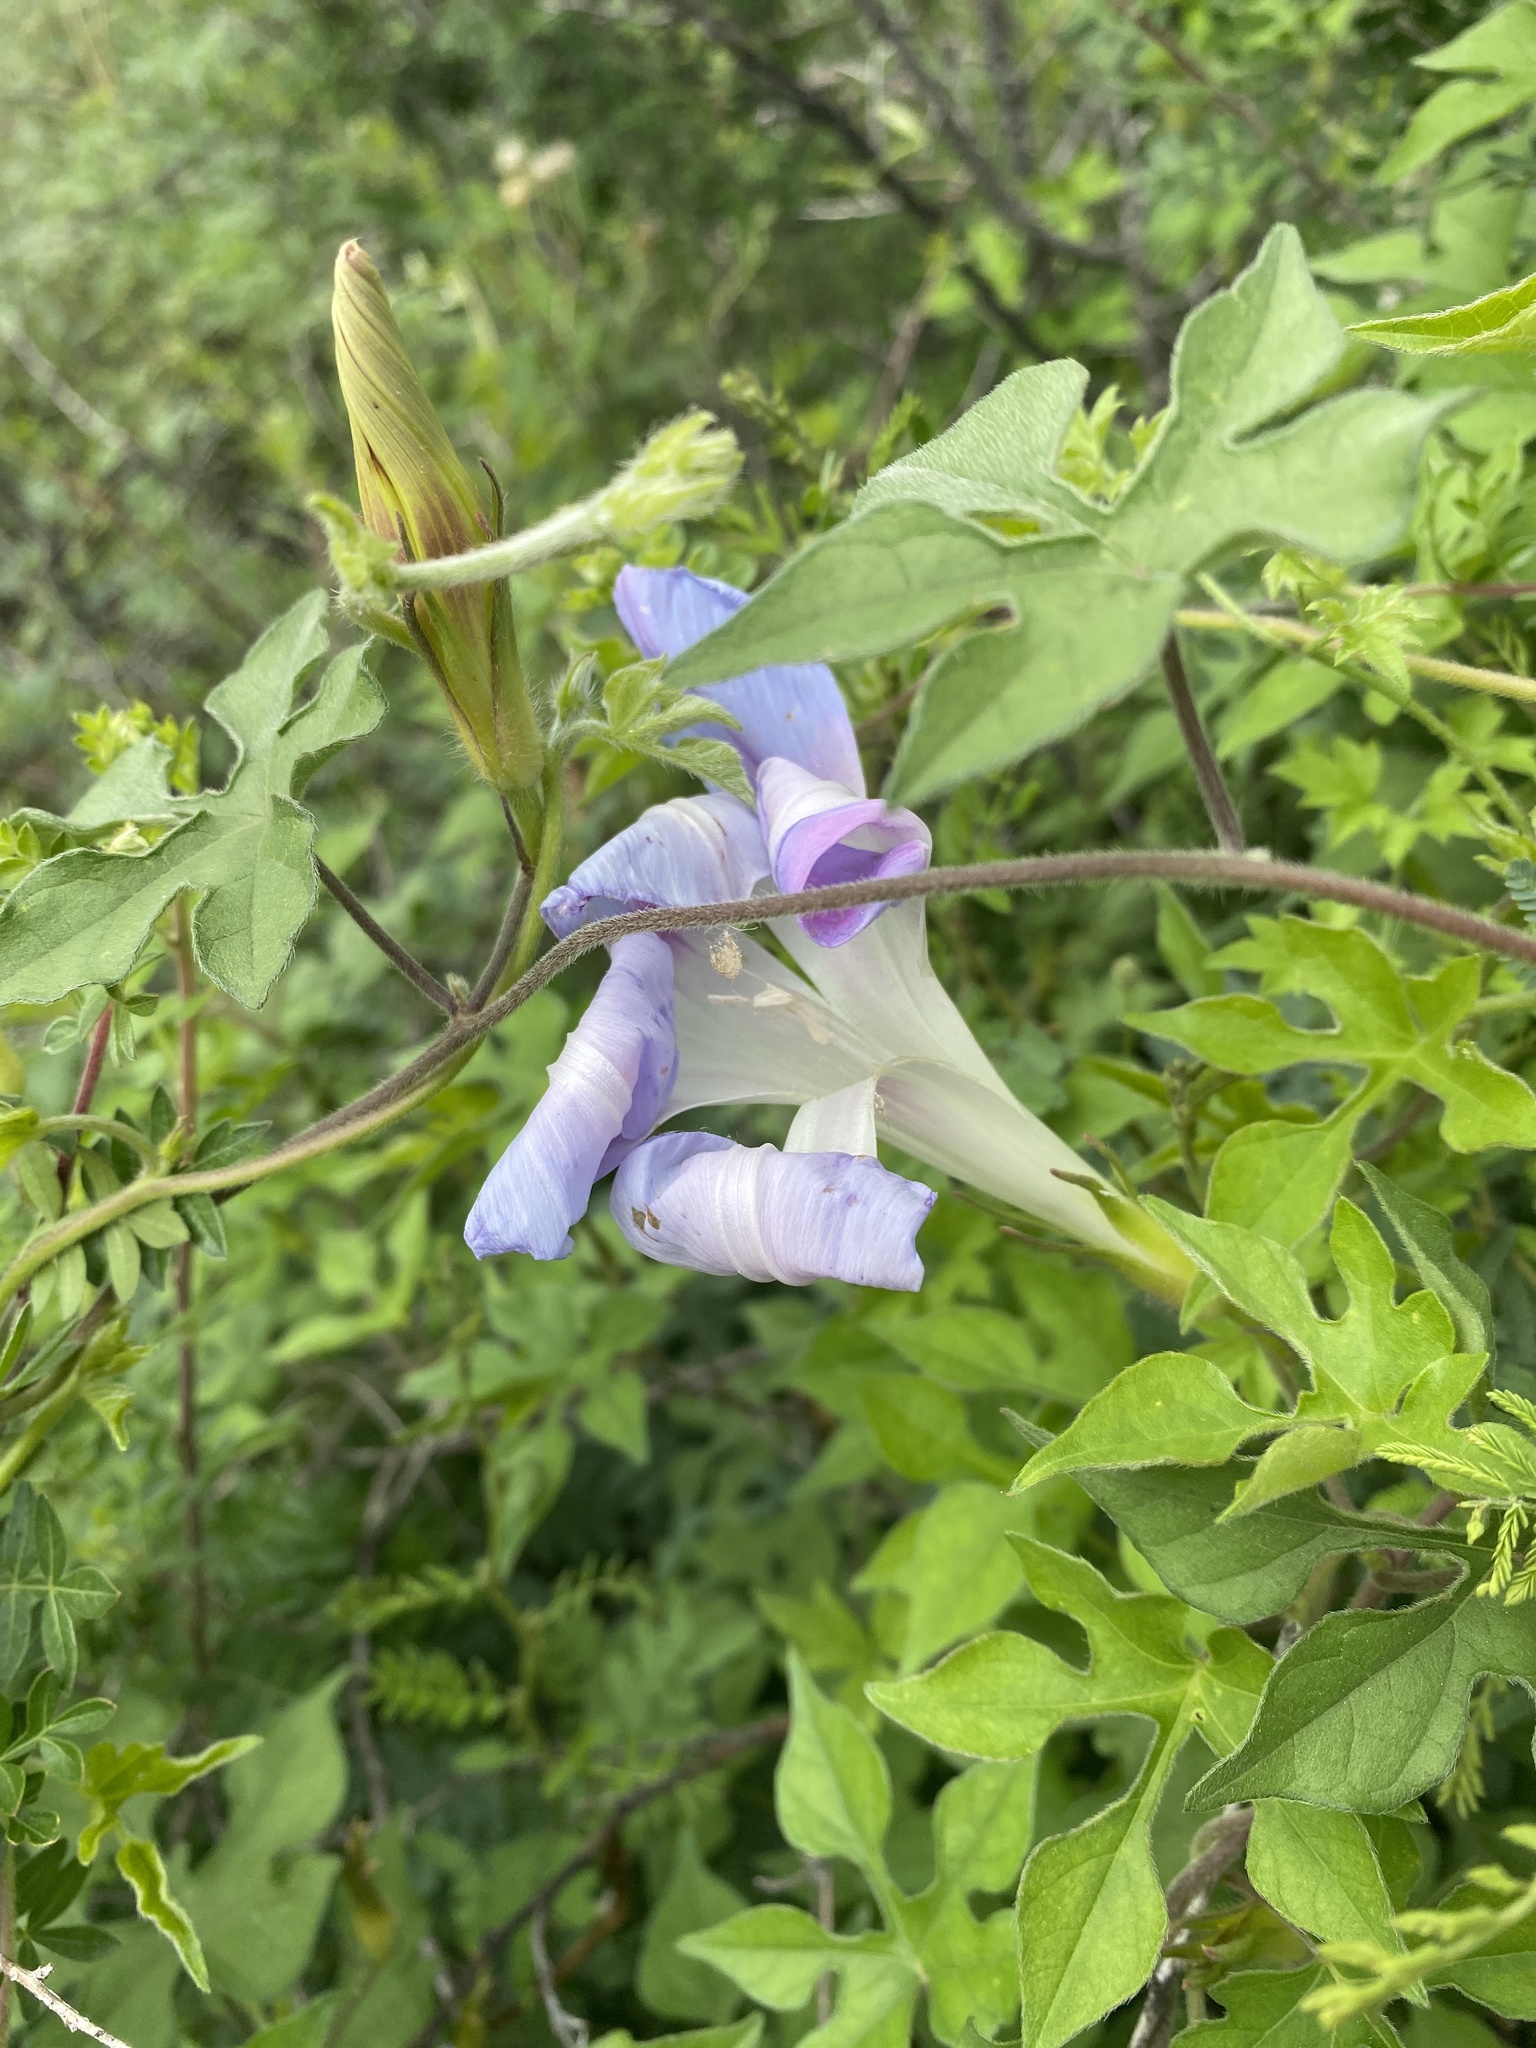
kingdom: Plantae
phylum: Tracheophyta
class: Magnoliopsida
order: Solanales
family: Convolvulaceae
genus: Ipomoea
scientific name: Ipomoea lindheimeri
